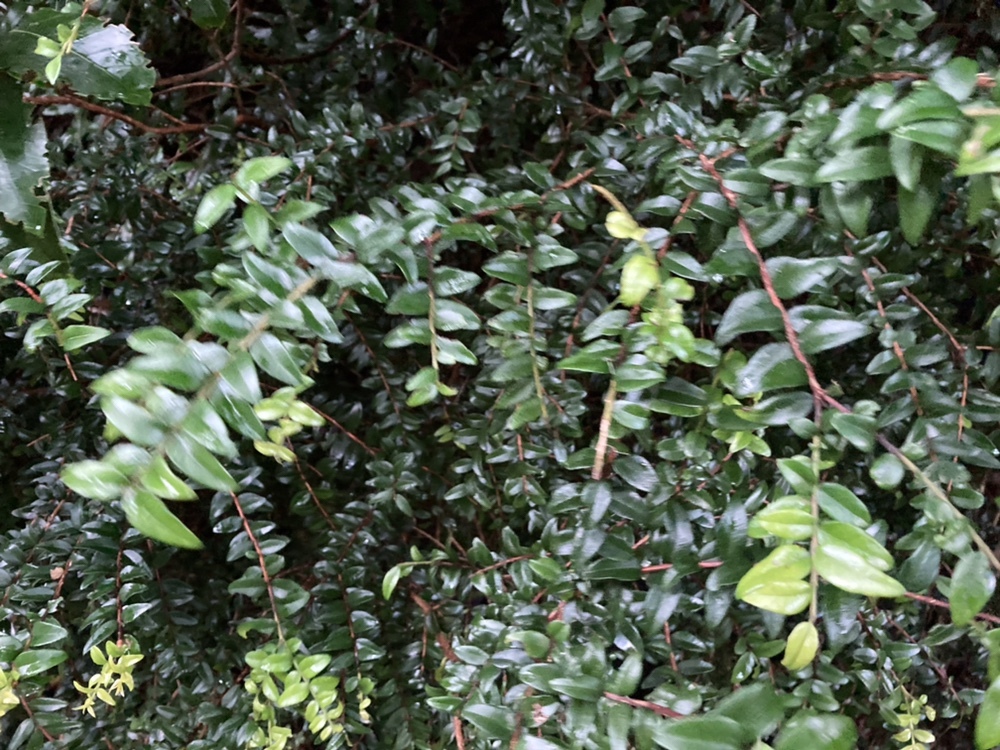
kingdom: Plantae
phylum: Tracheophyta
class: Magnoliopsida
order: Myrtales
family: Myrtaceae
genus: Metrosideros
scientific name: Metrosideros diffusa
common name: Small ratavine
